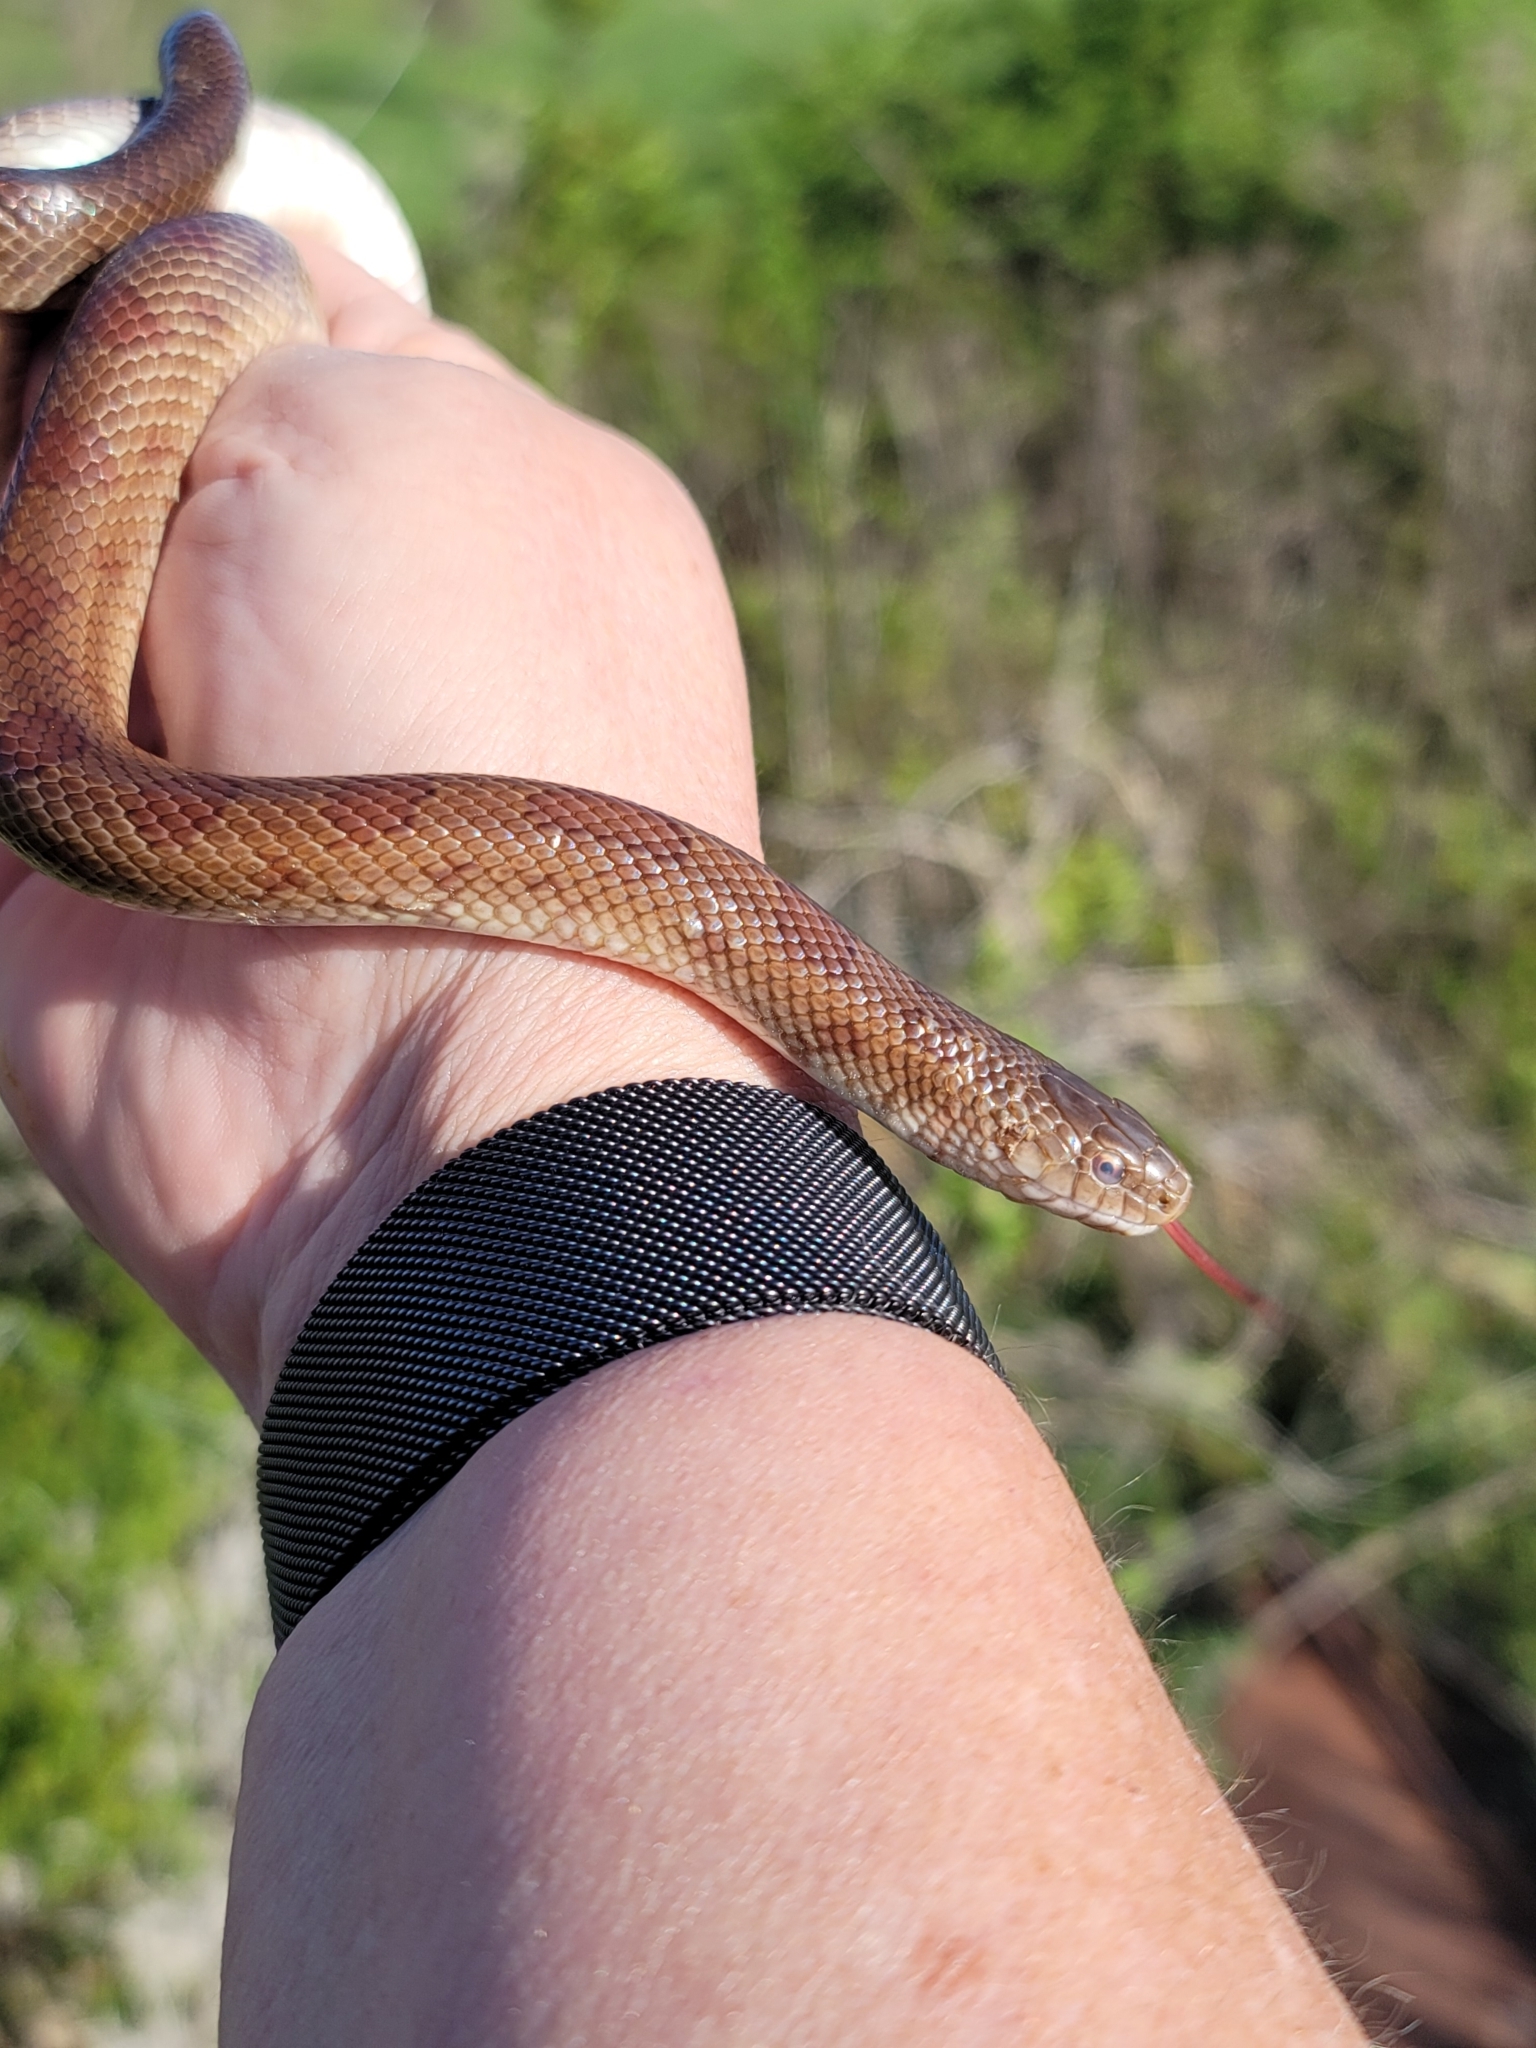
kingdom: Animalia
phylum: Chordata
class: Squamata
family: Colubridae
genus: Lampropeltis
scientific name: Lampropeltis rhombomaculata
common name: Mole kingsnake
